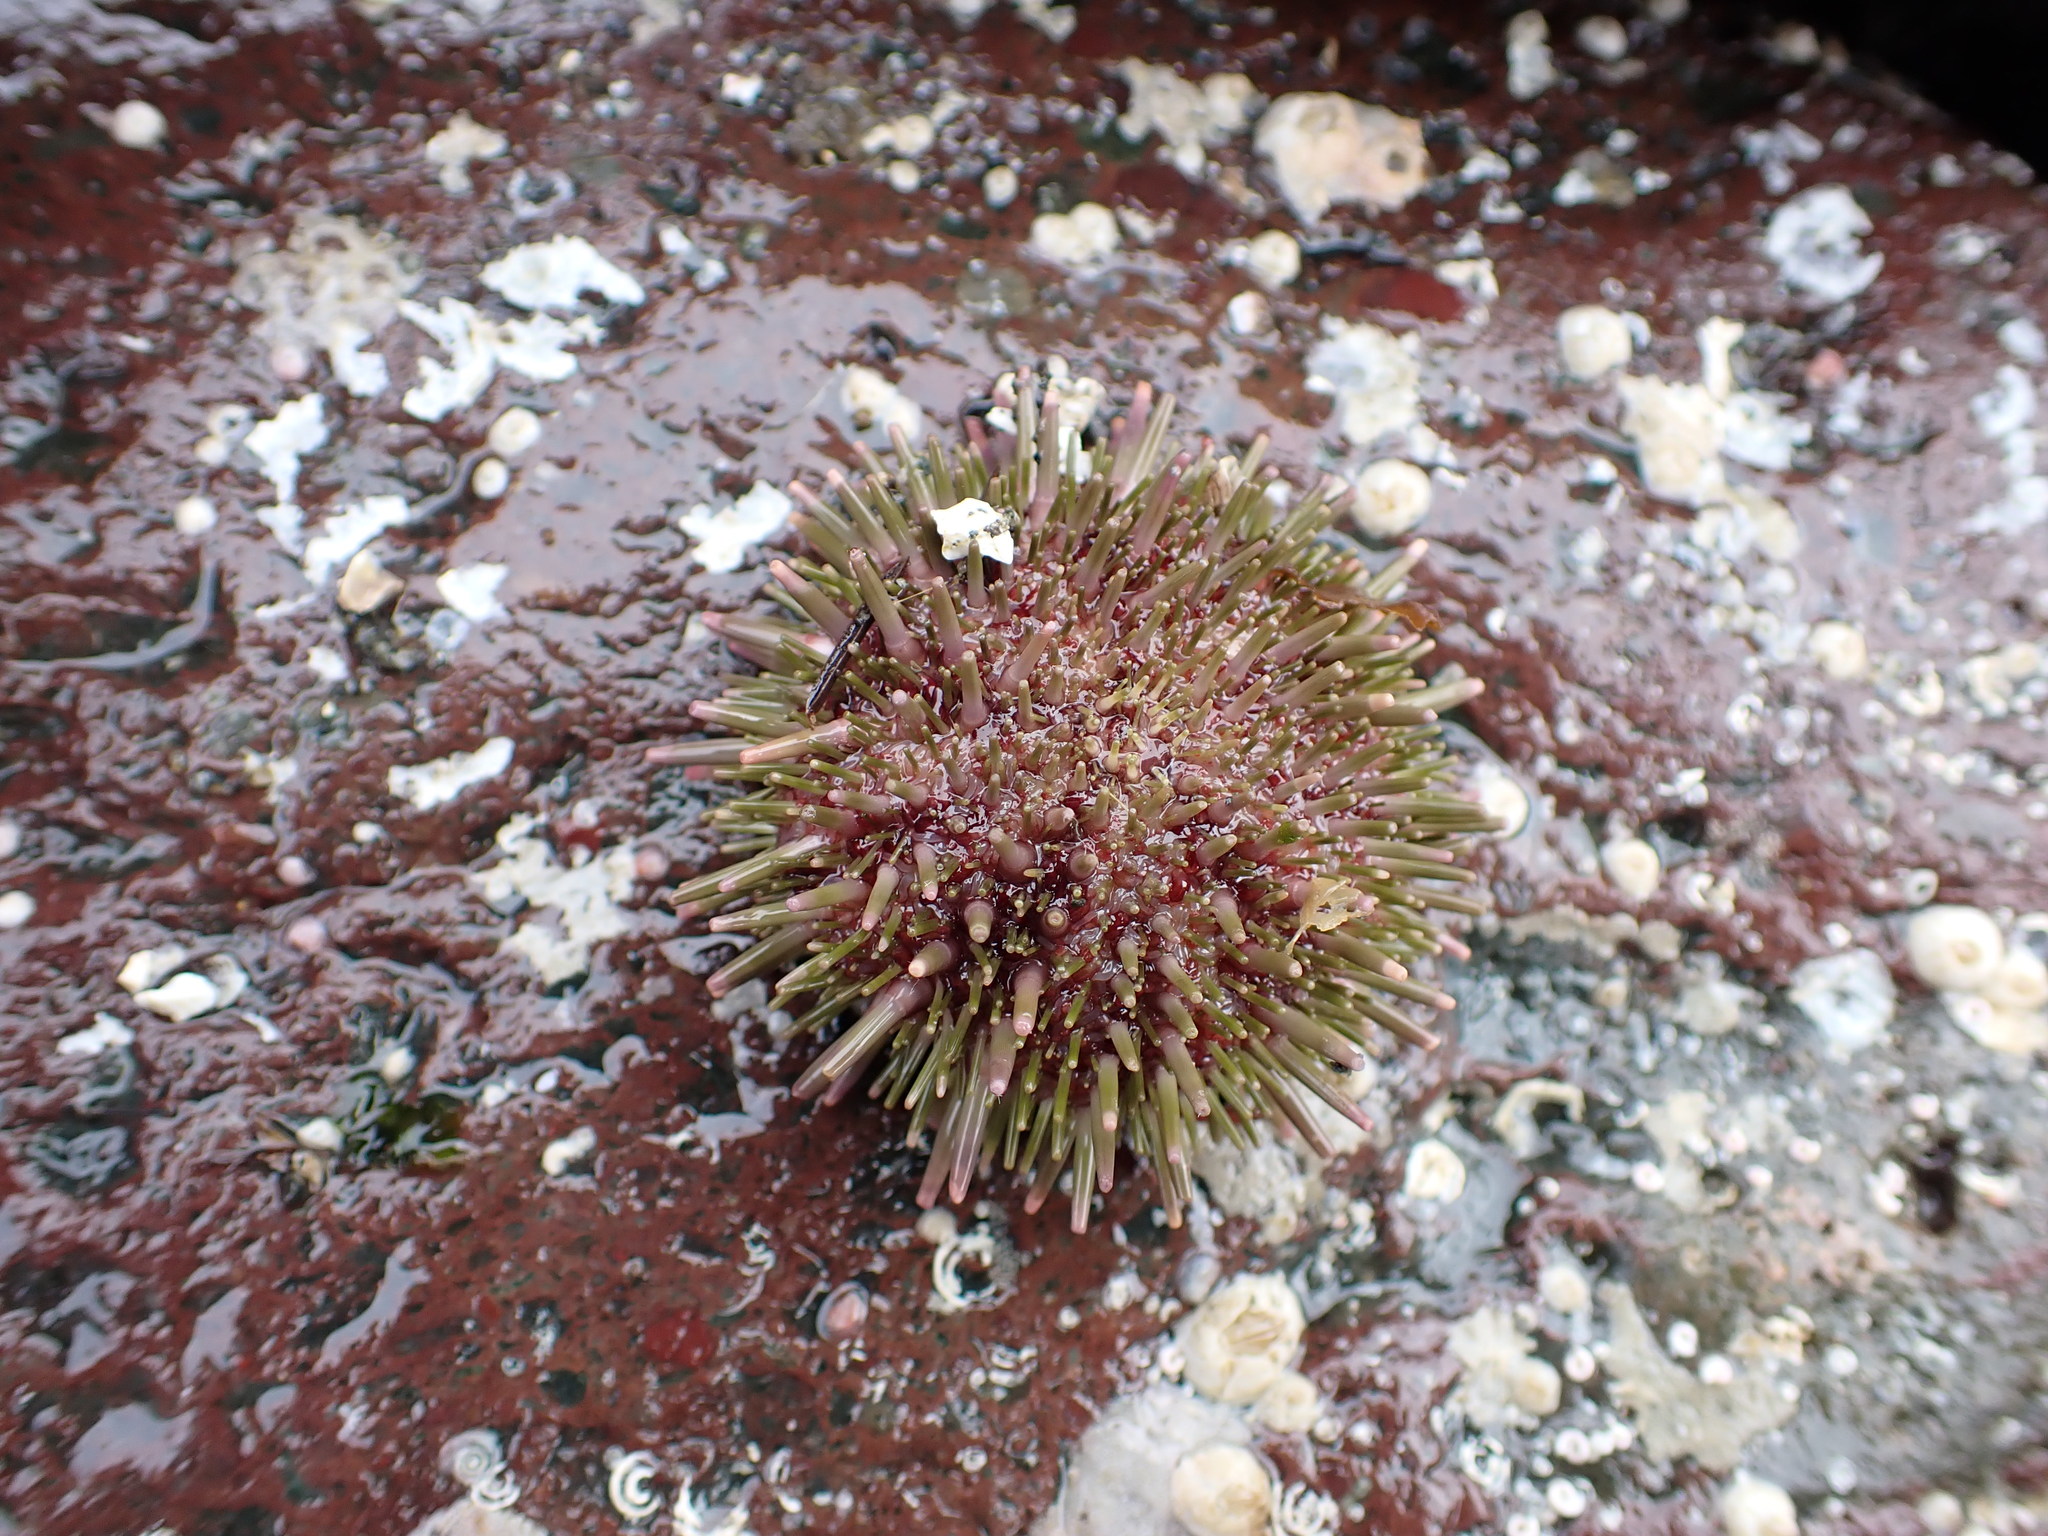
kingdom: Animalia
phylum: Echinodermata
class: Echinoidea
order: Camarodonta
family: Strongylocentrotidae
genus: Strongylocentrotus
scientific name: Strongylocentrotus droebachiensis
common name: Northern sea urchin
